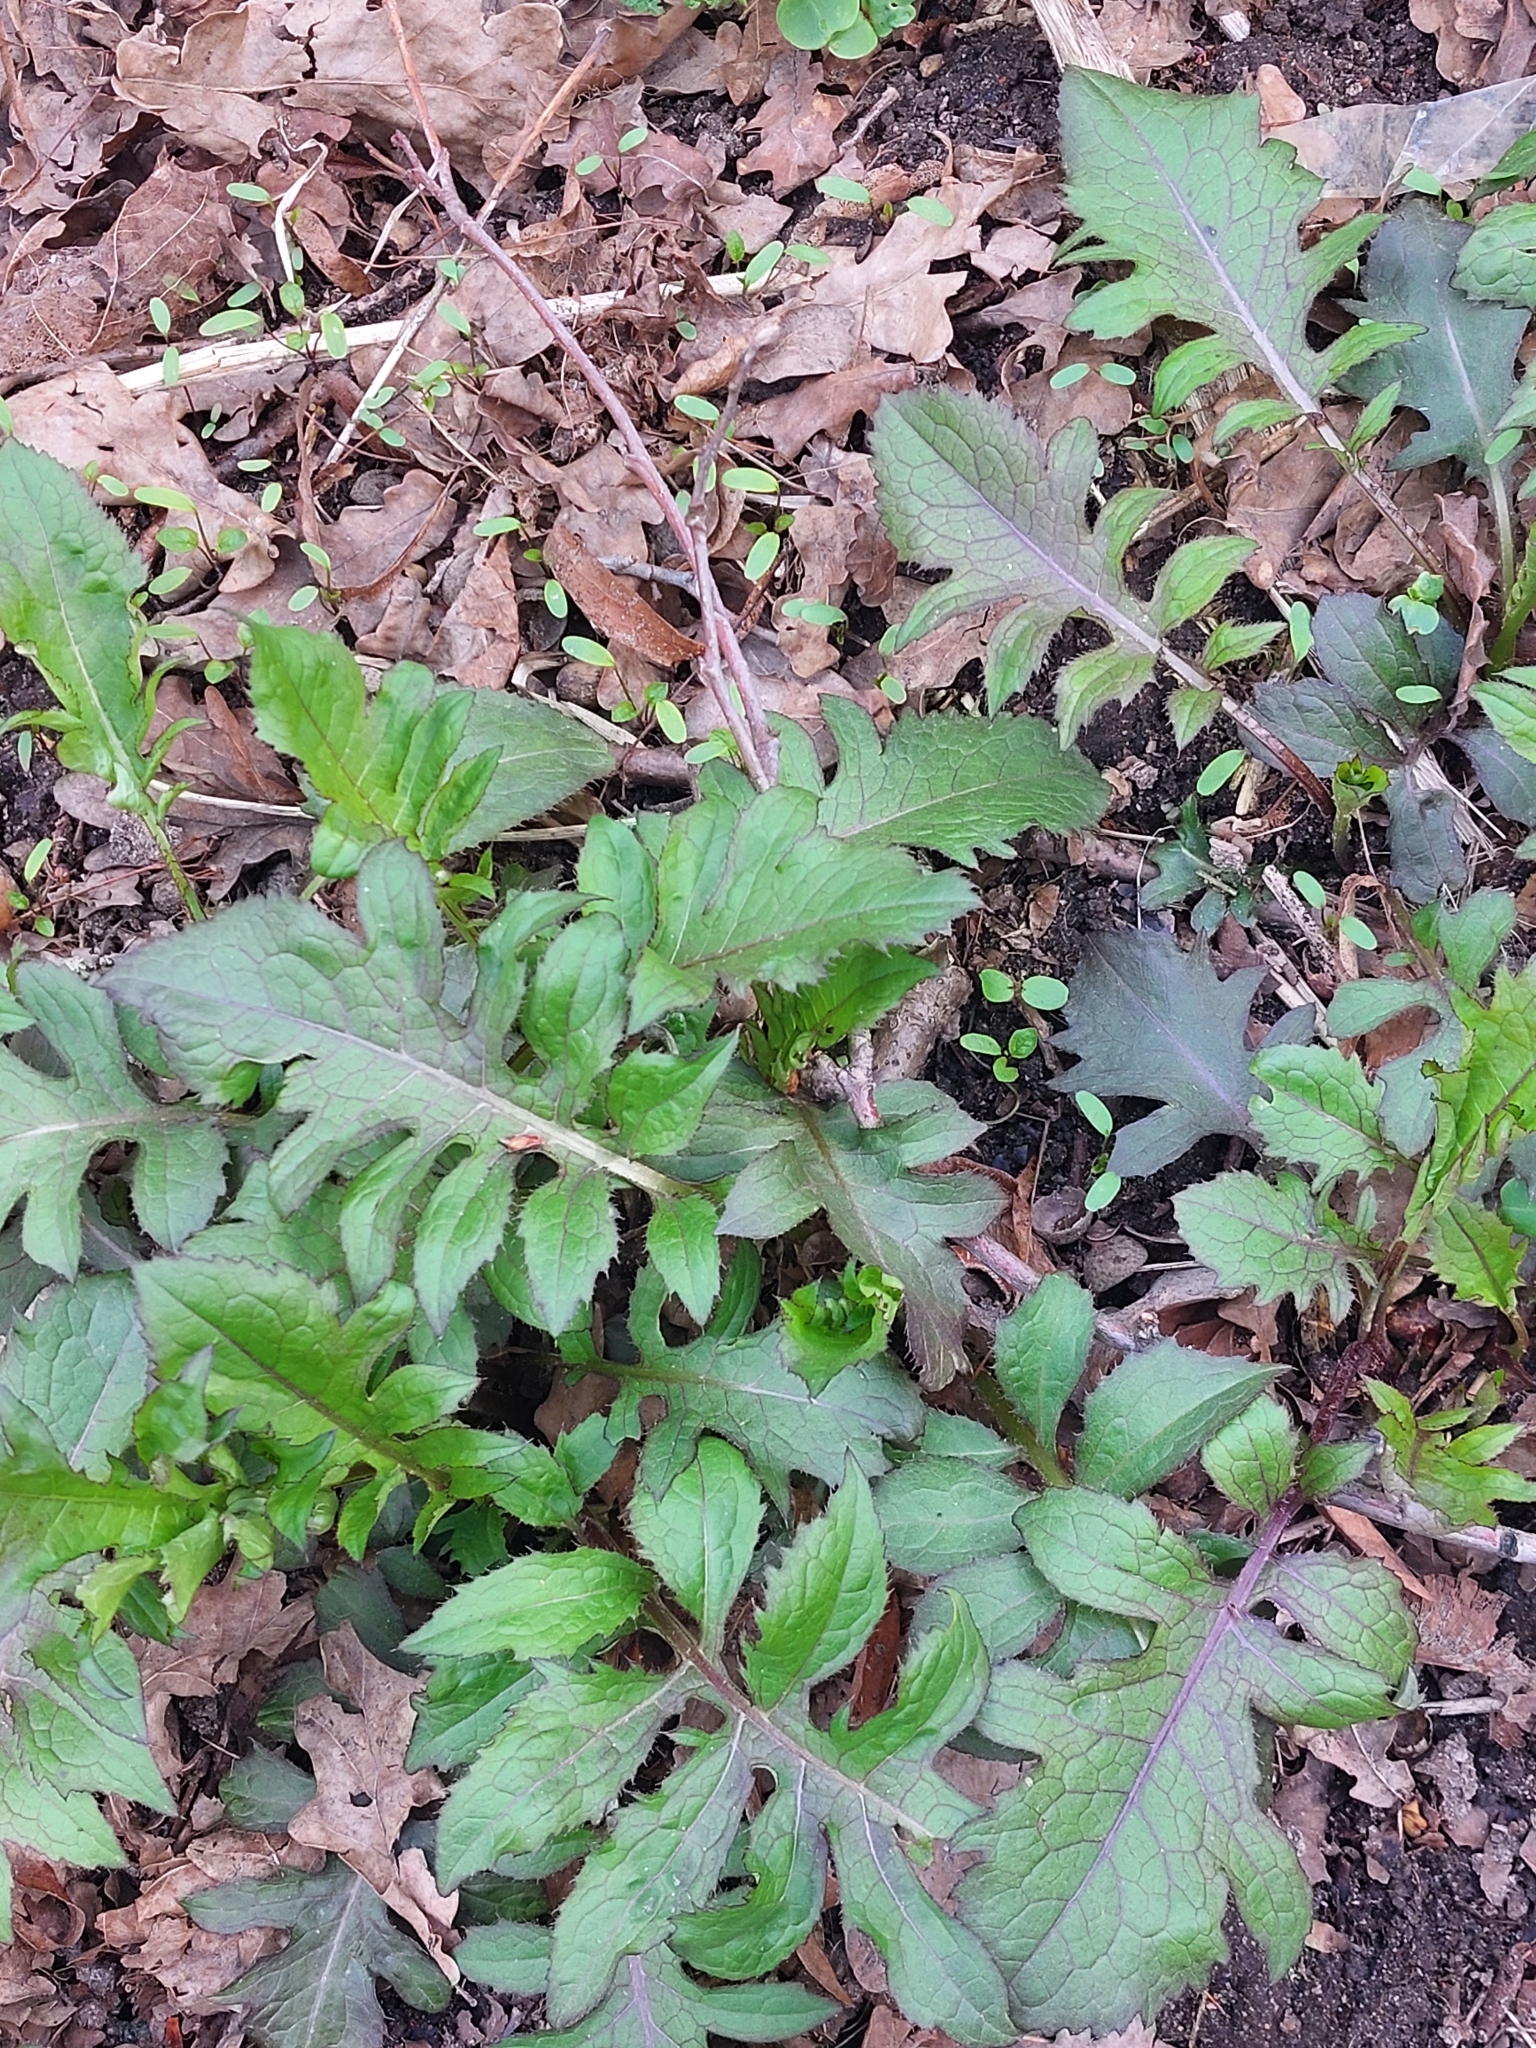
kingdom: Plantae
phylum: Tracheophyta
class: Magnoliopsida
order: Asterales
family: Asteraceae
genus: Cirsium
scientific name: Cirsium oleraceum
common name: Cabbage thistle
